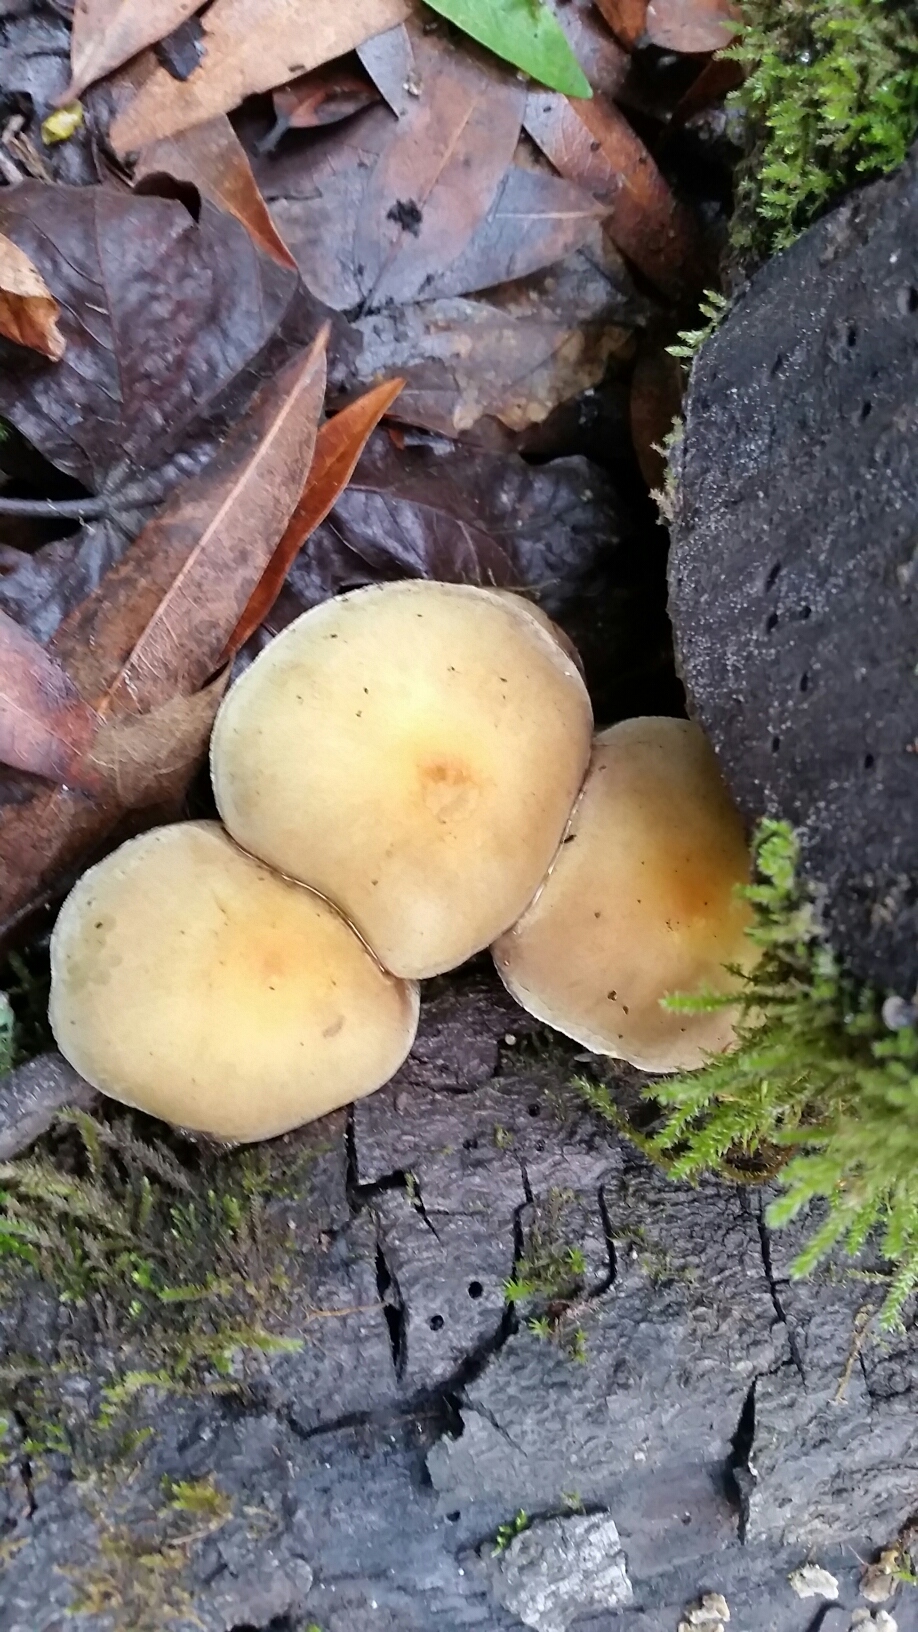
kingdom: Fungi
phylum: Basidiomycota
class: Agaricomycetes
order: Agaricales
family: Strophariaceae
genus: Hypholoma
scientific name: Hypholoma fasciculare
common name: Sulphur tuft
